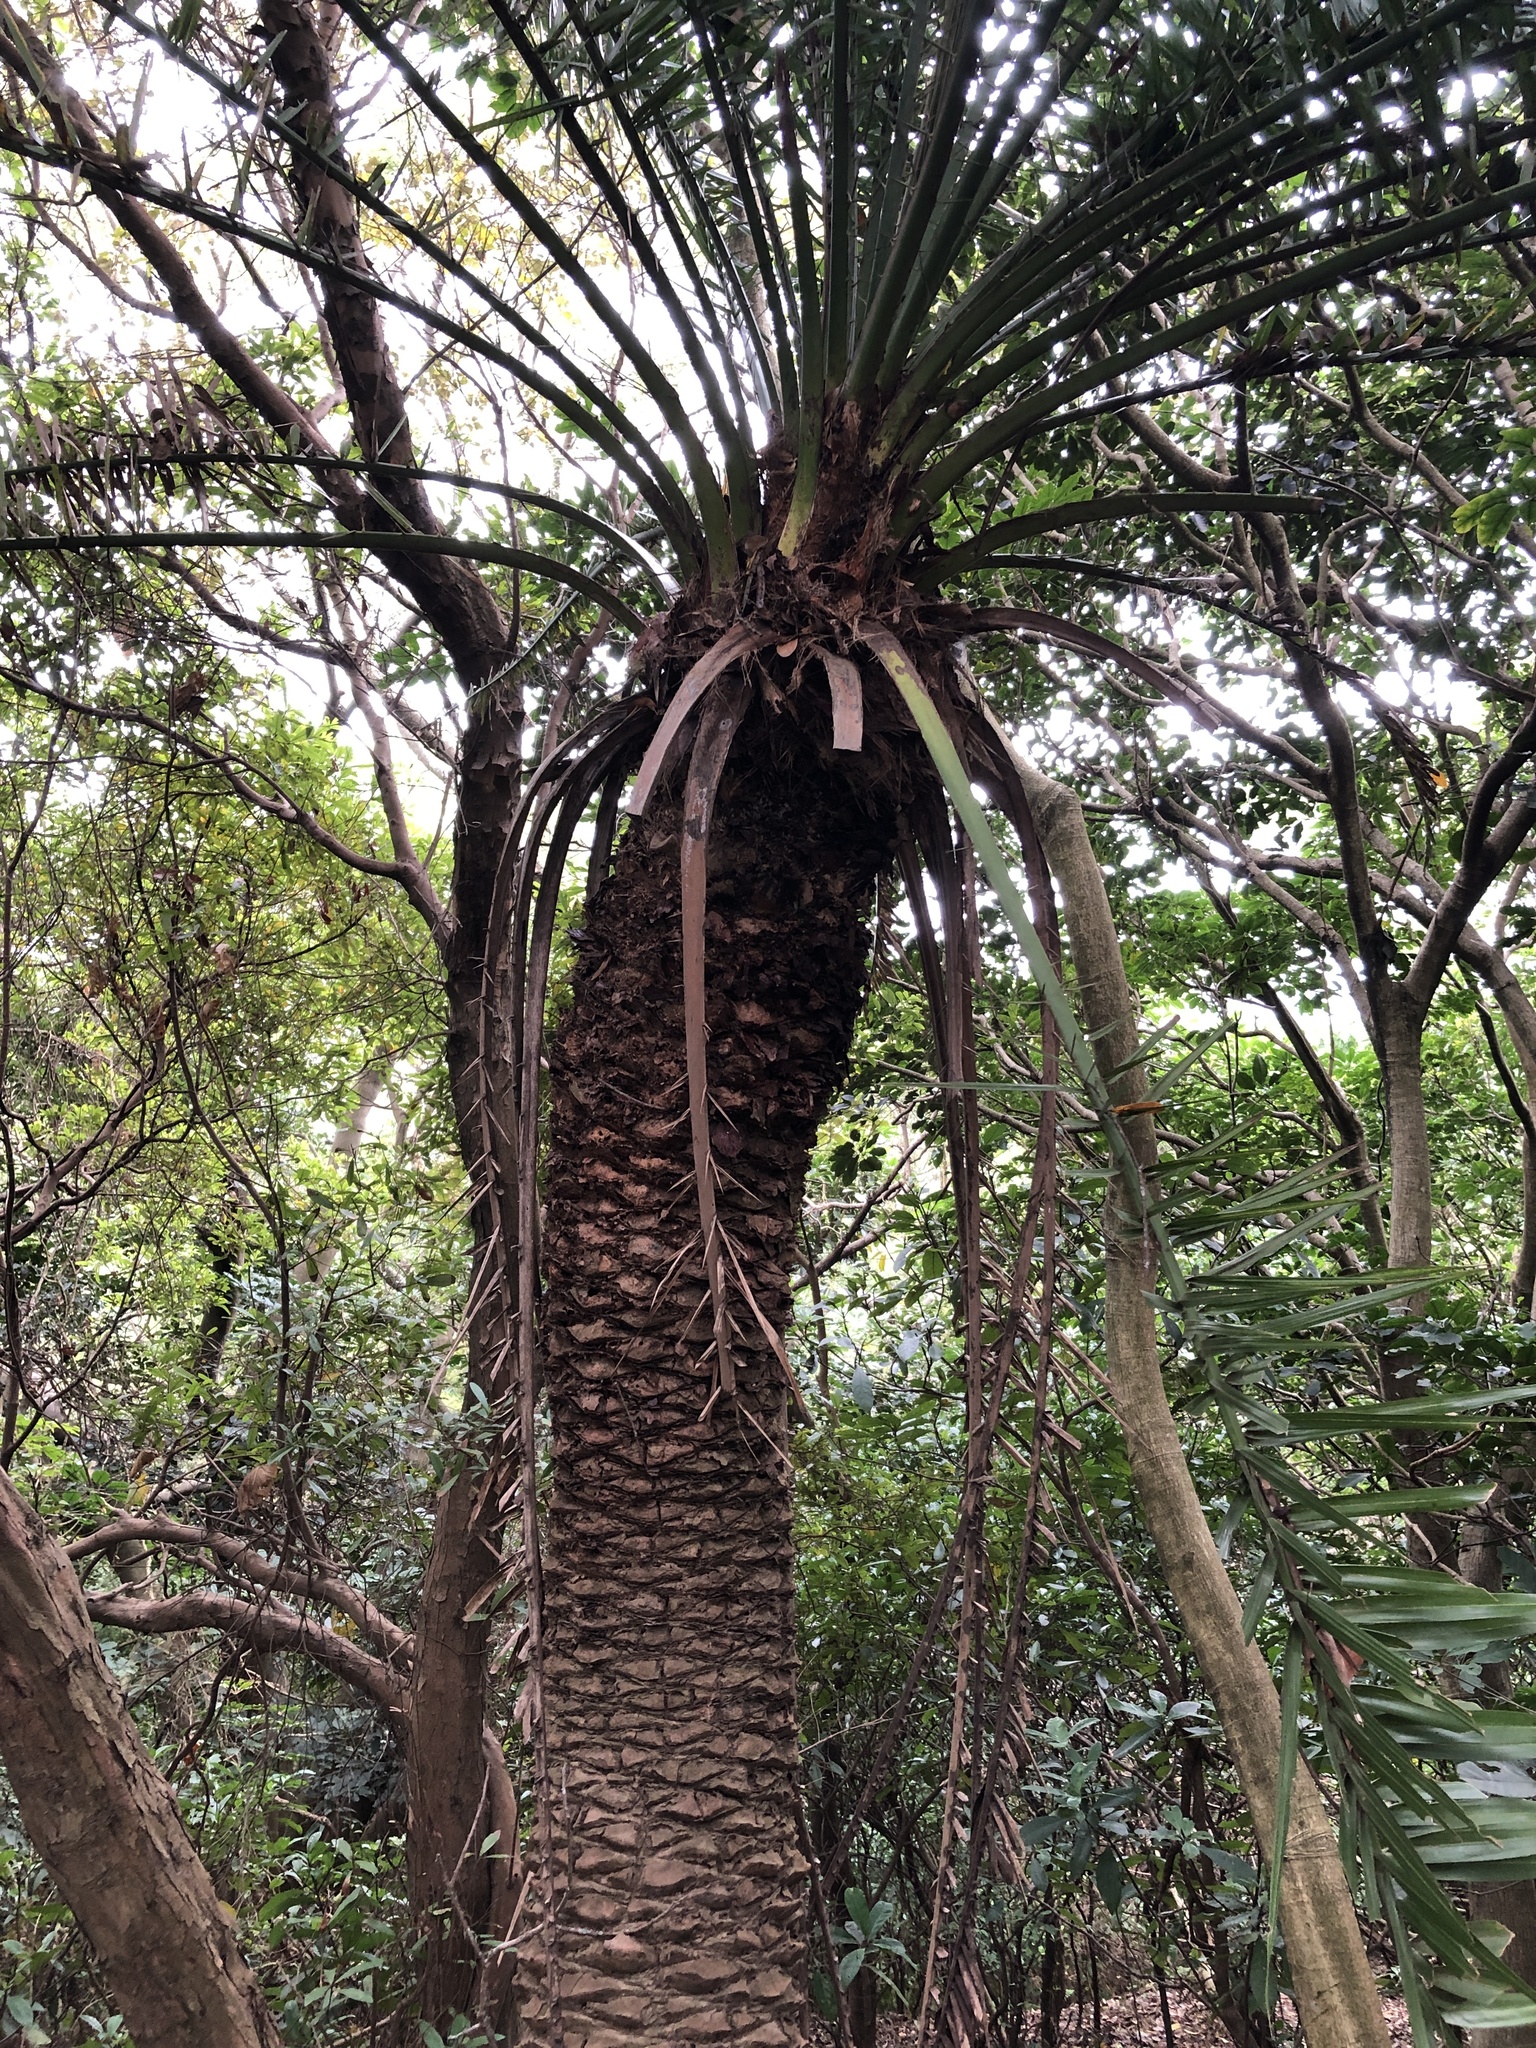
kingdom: Plantae
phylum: Tracheophyta
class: Liliopsida
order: Arecales
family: Arecaceae
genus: Phoenix
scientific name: Phoenix loureiroi
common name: Loureiro's palm
